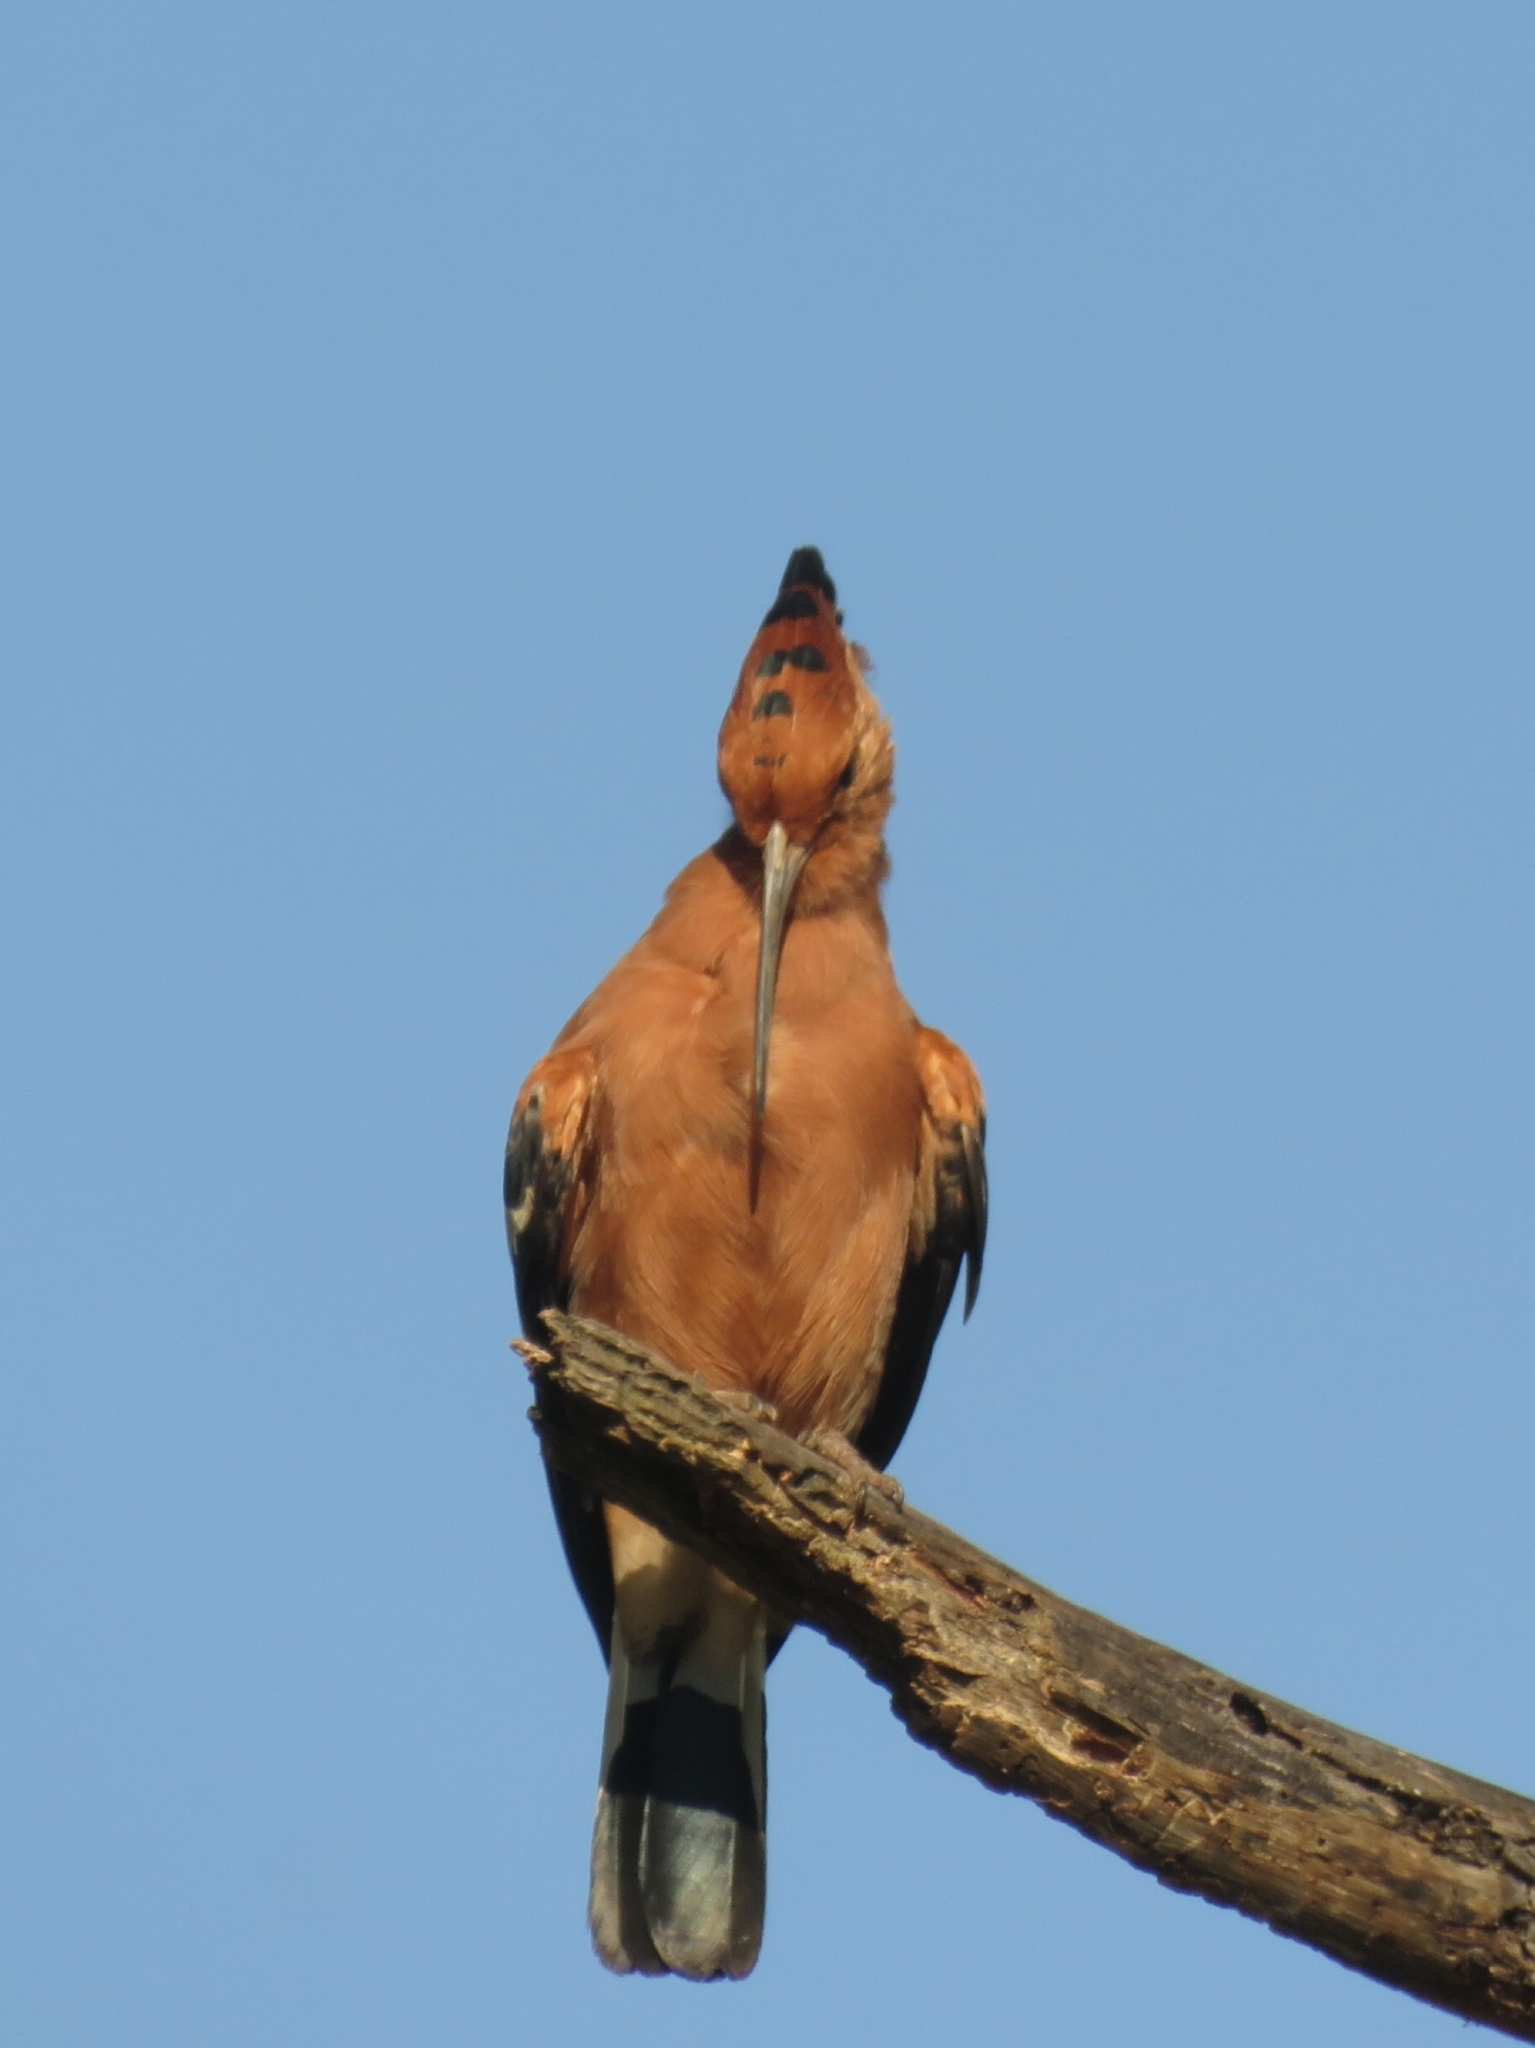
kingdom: Animalia
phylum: Chordata
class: Aves
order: Bucerotiformes
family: Upupidae
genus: Upupa
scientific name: Upupa africana
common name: African hoopoe
